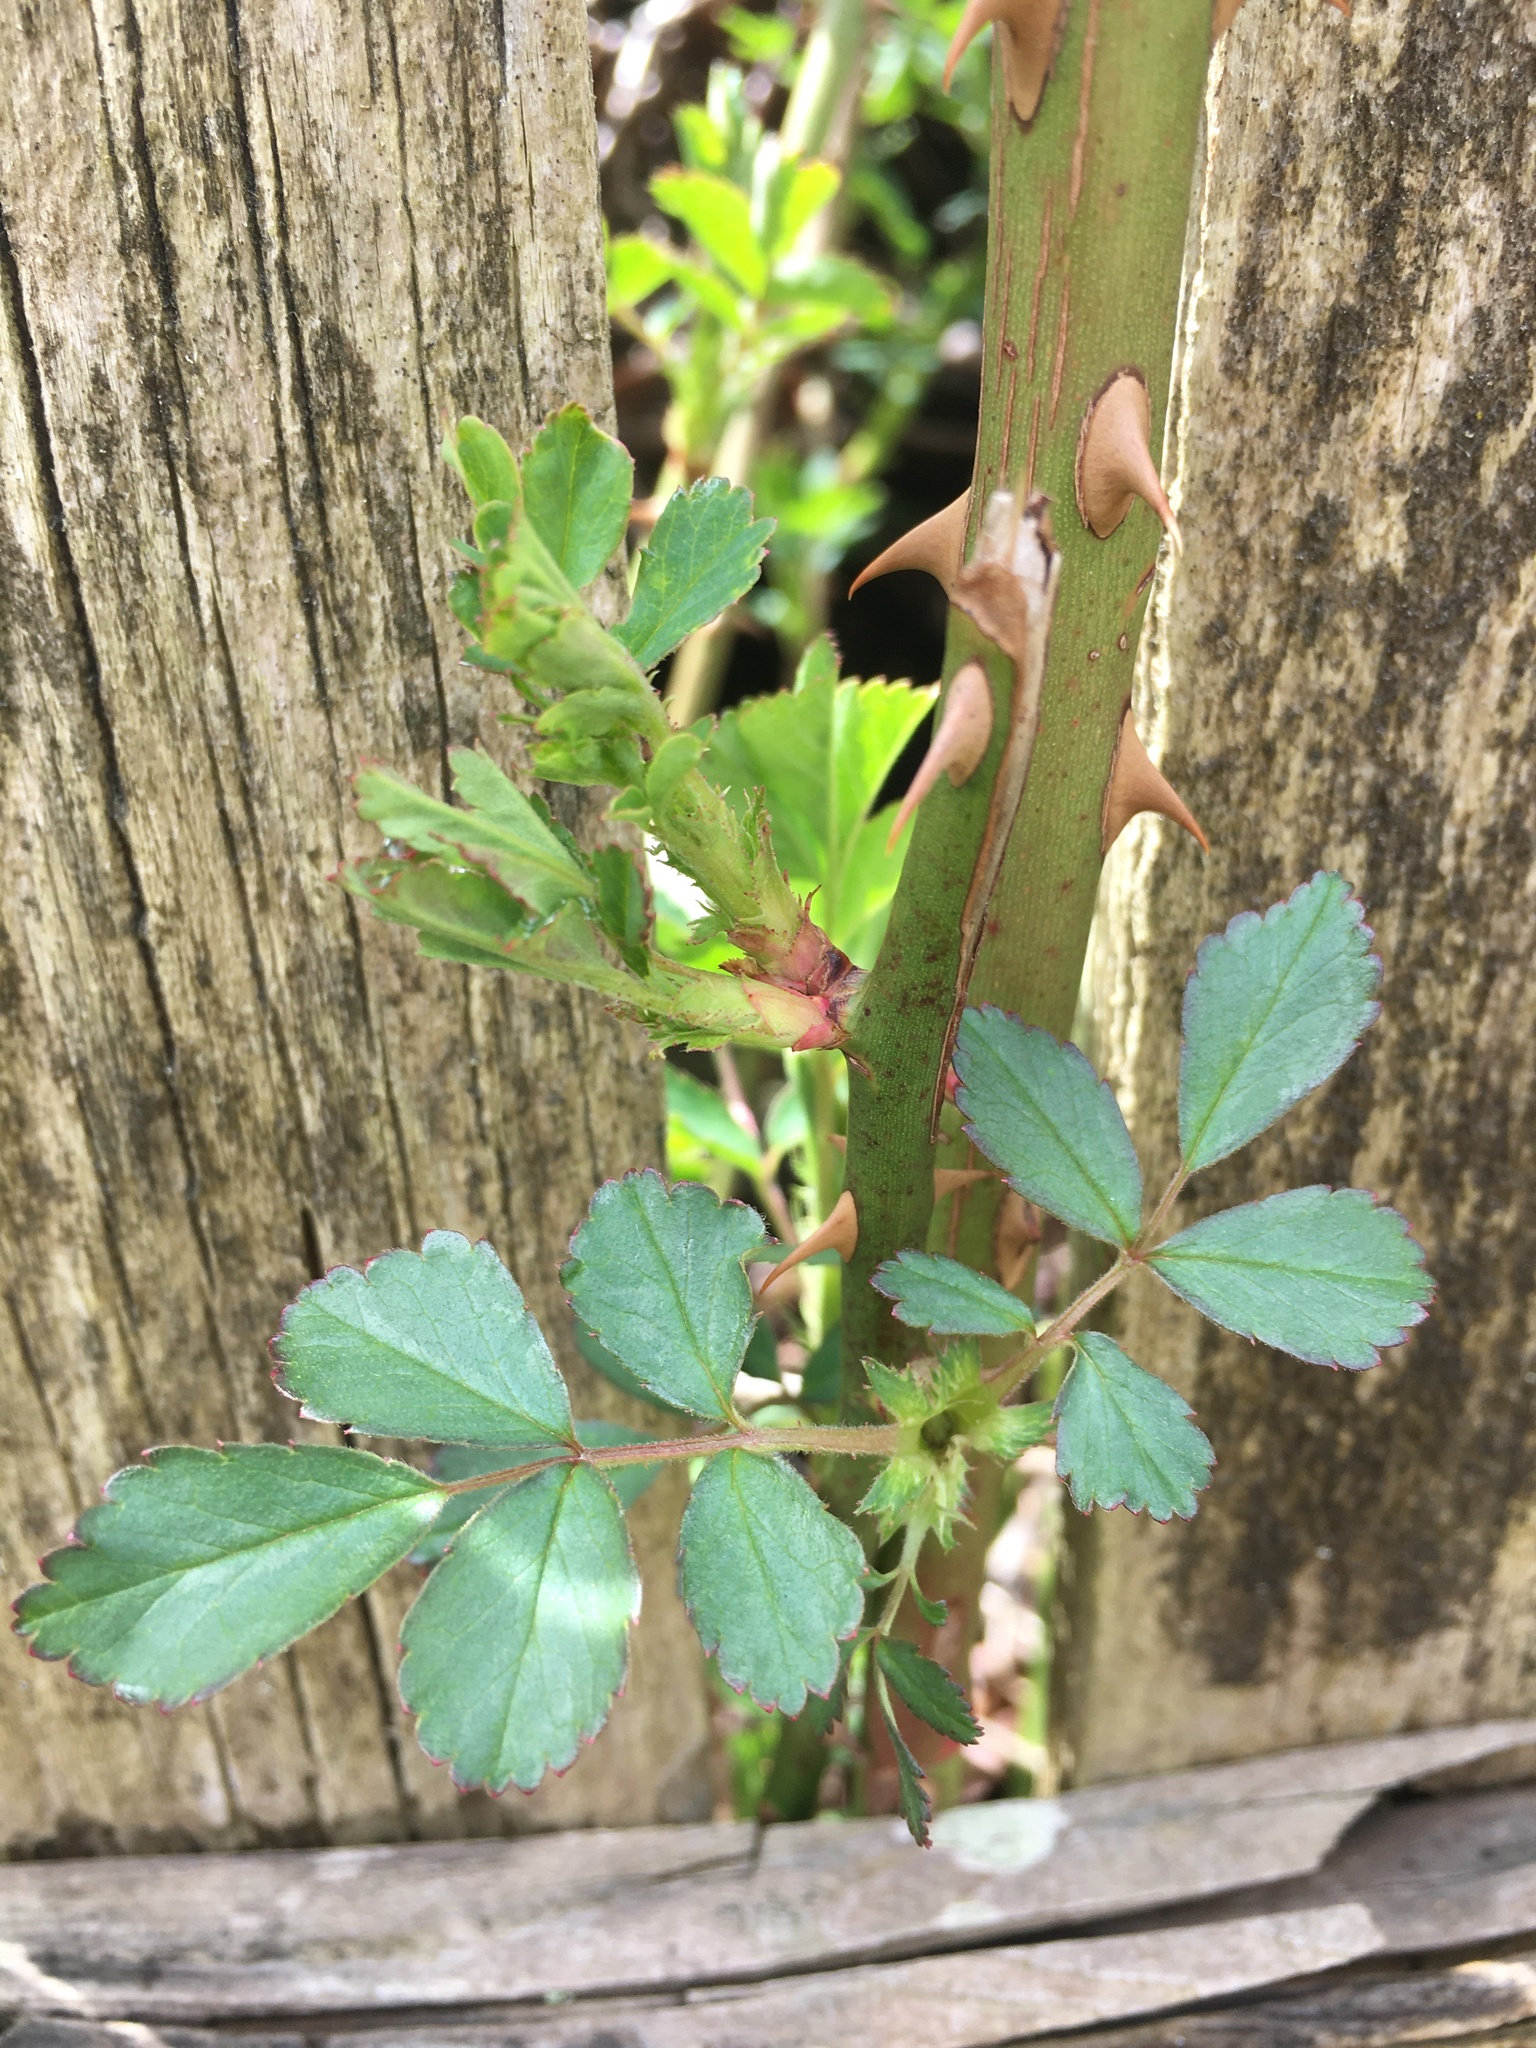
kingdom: Plantae
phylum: Tracheophyta
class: Magnoliopsida
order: Rosales
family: Rosaceae
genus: Rosa
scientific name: Rosa multiflora
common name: Multiflora rose
